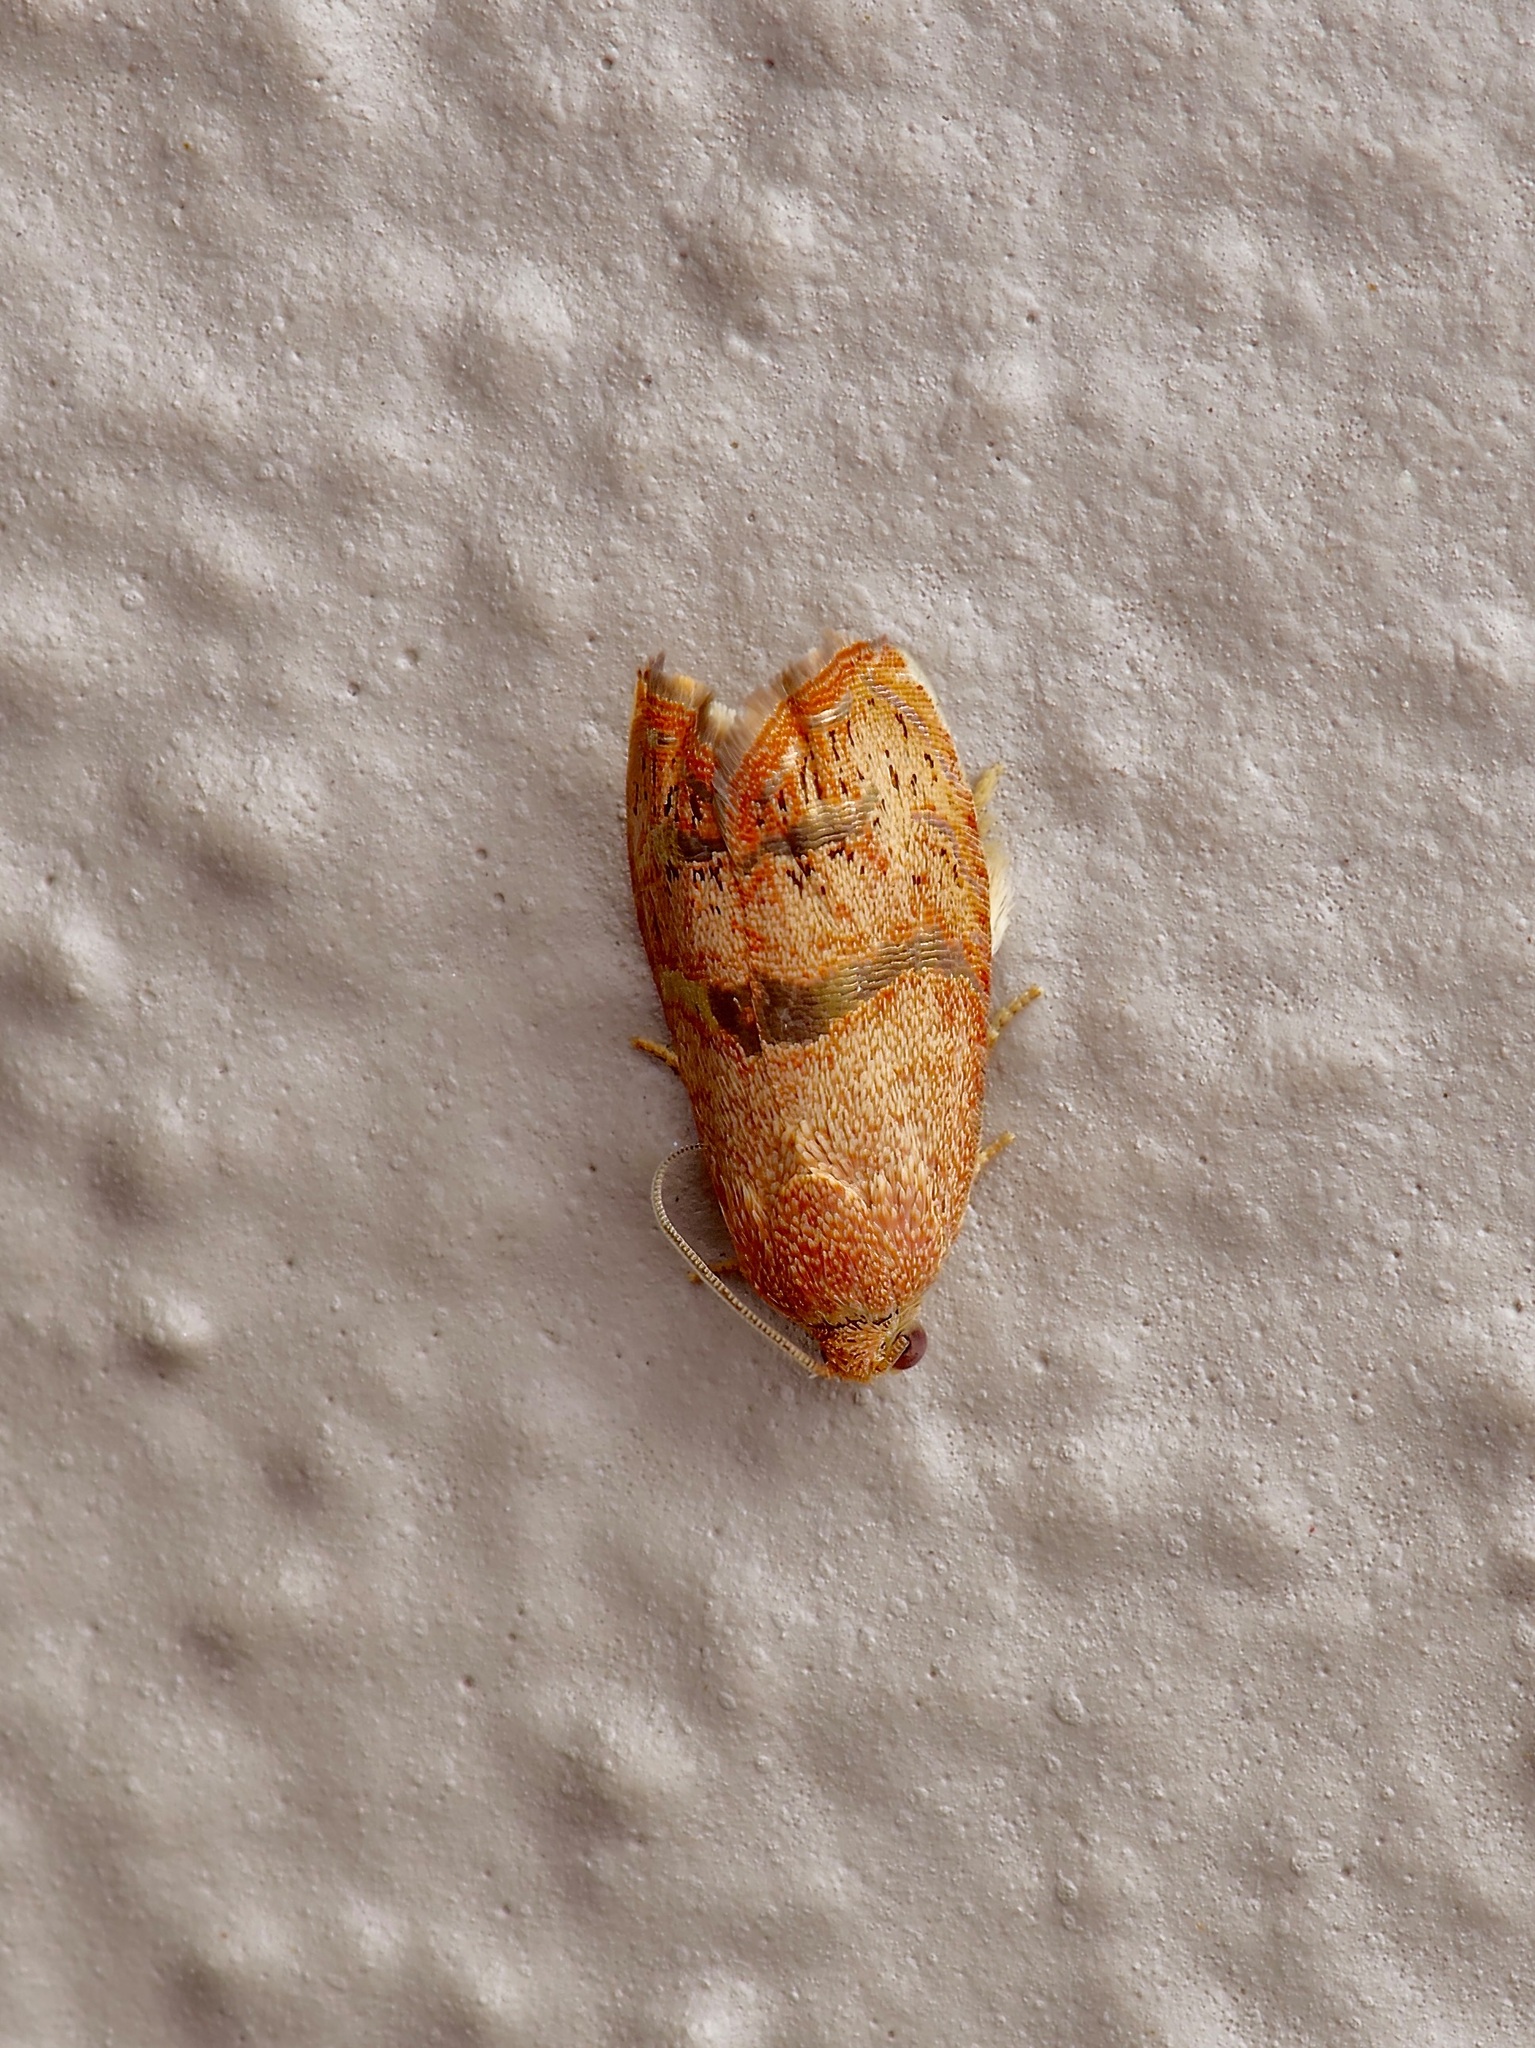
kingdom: Animalia
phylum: Arthropoda
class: Insecta
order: Lepidoptera
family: Tortricidae
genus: Cydia
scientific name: Cydia latiferreana
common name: Filbertworm moth
